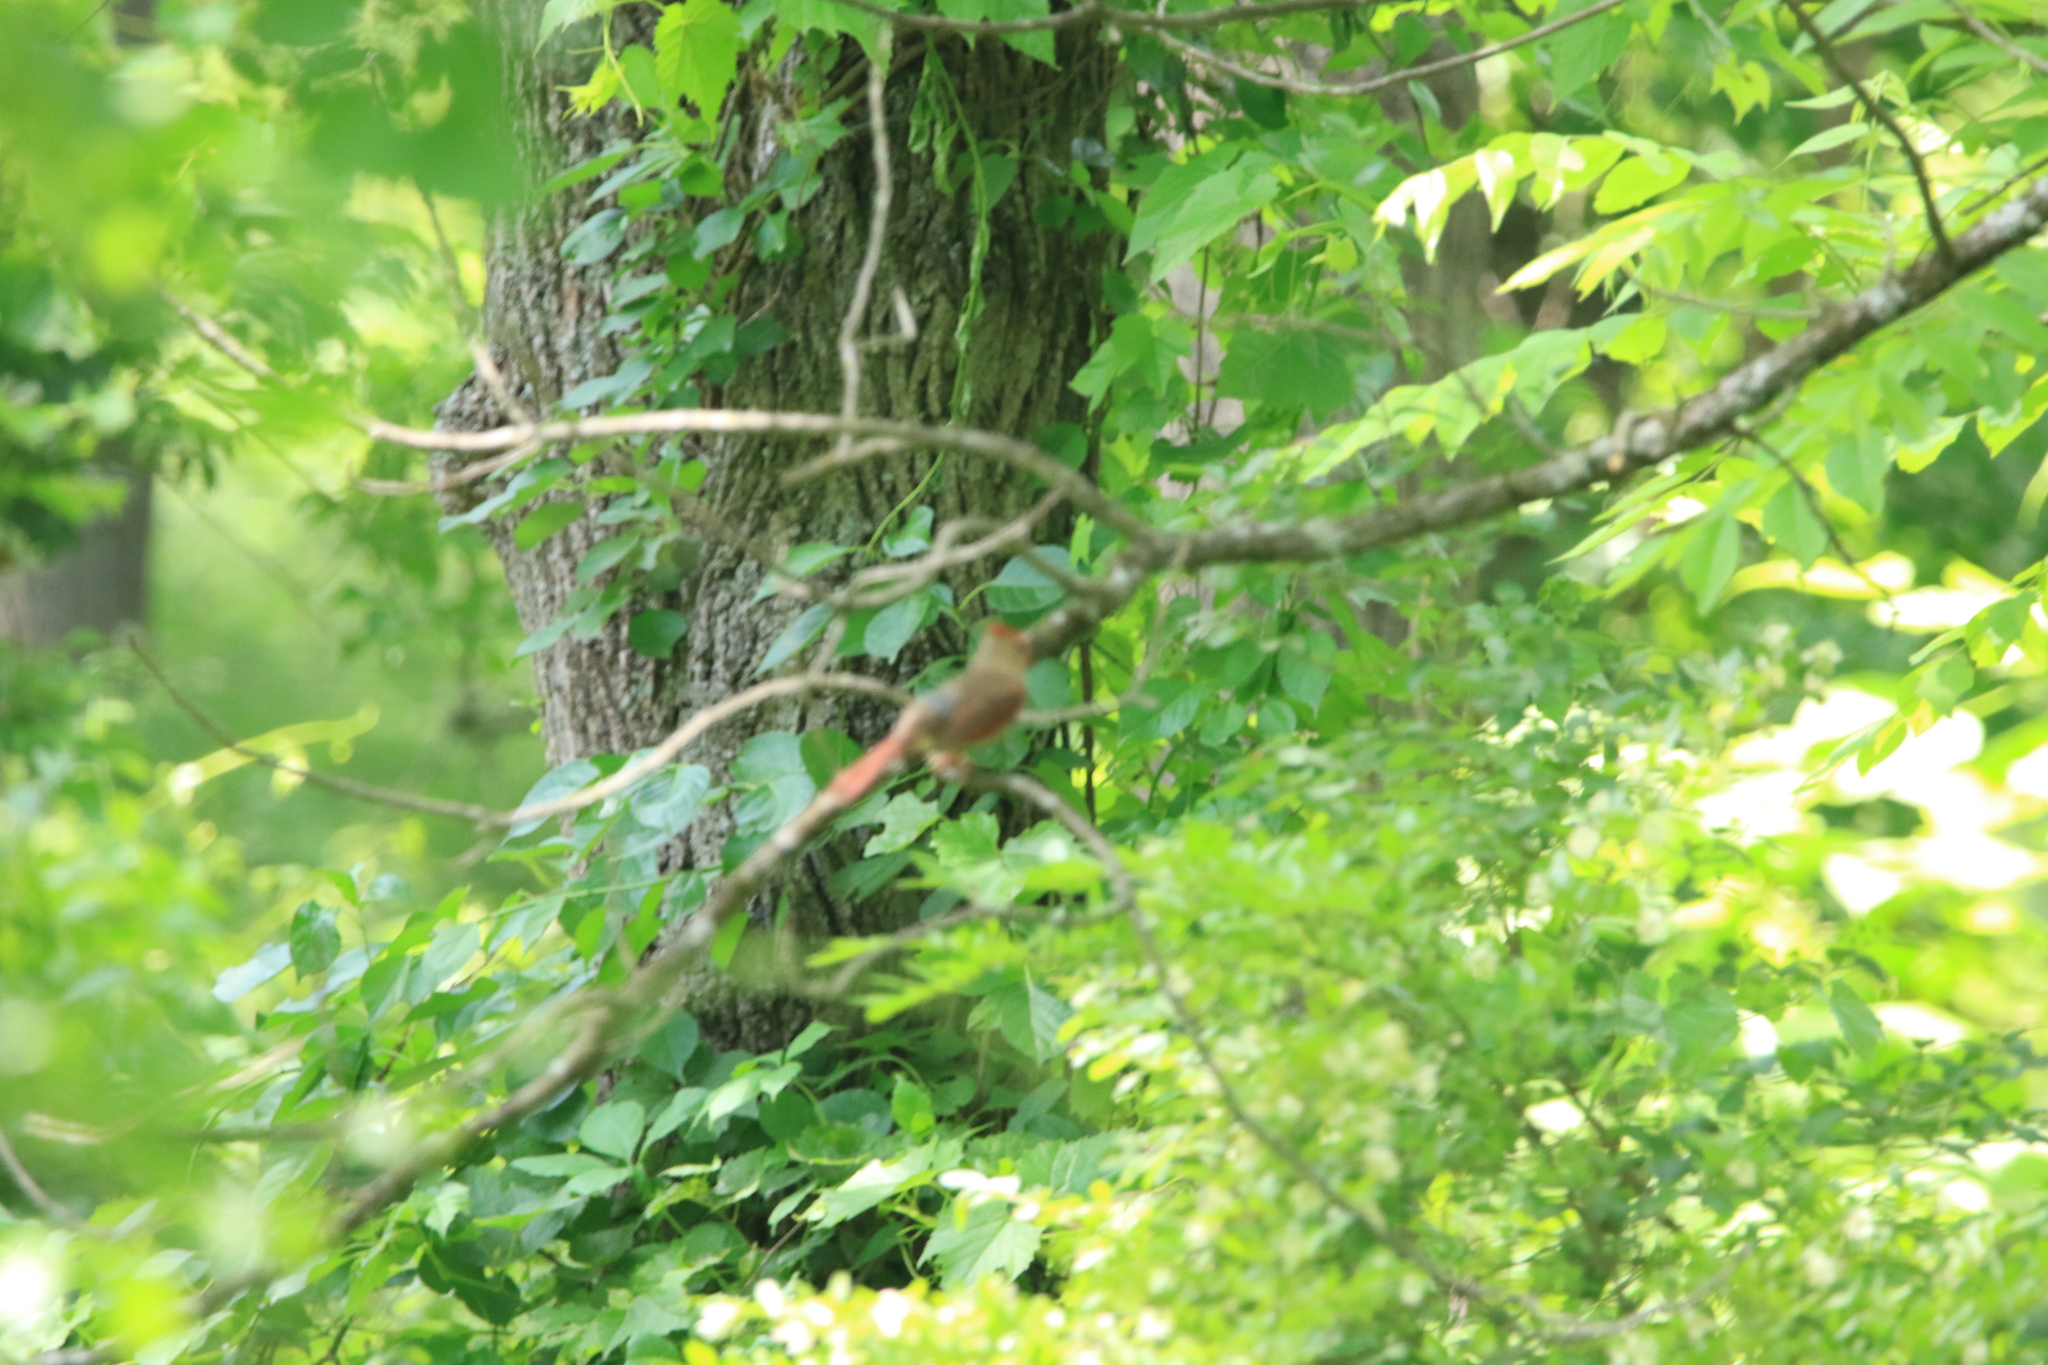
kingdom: Animalia
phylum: Chordata
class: Aves
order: Passeriformes
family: Cardinalidae
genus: Cardinalis
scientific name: Cardinalis cardinalis
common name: Northern cardinal
